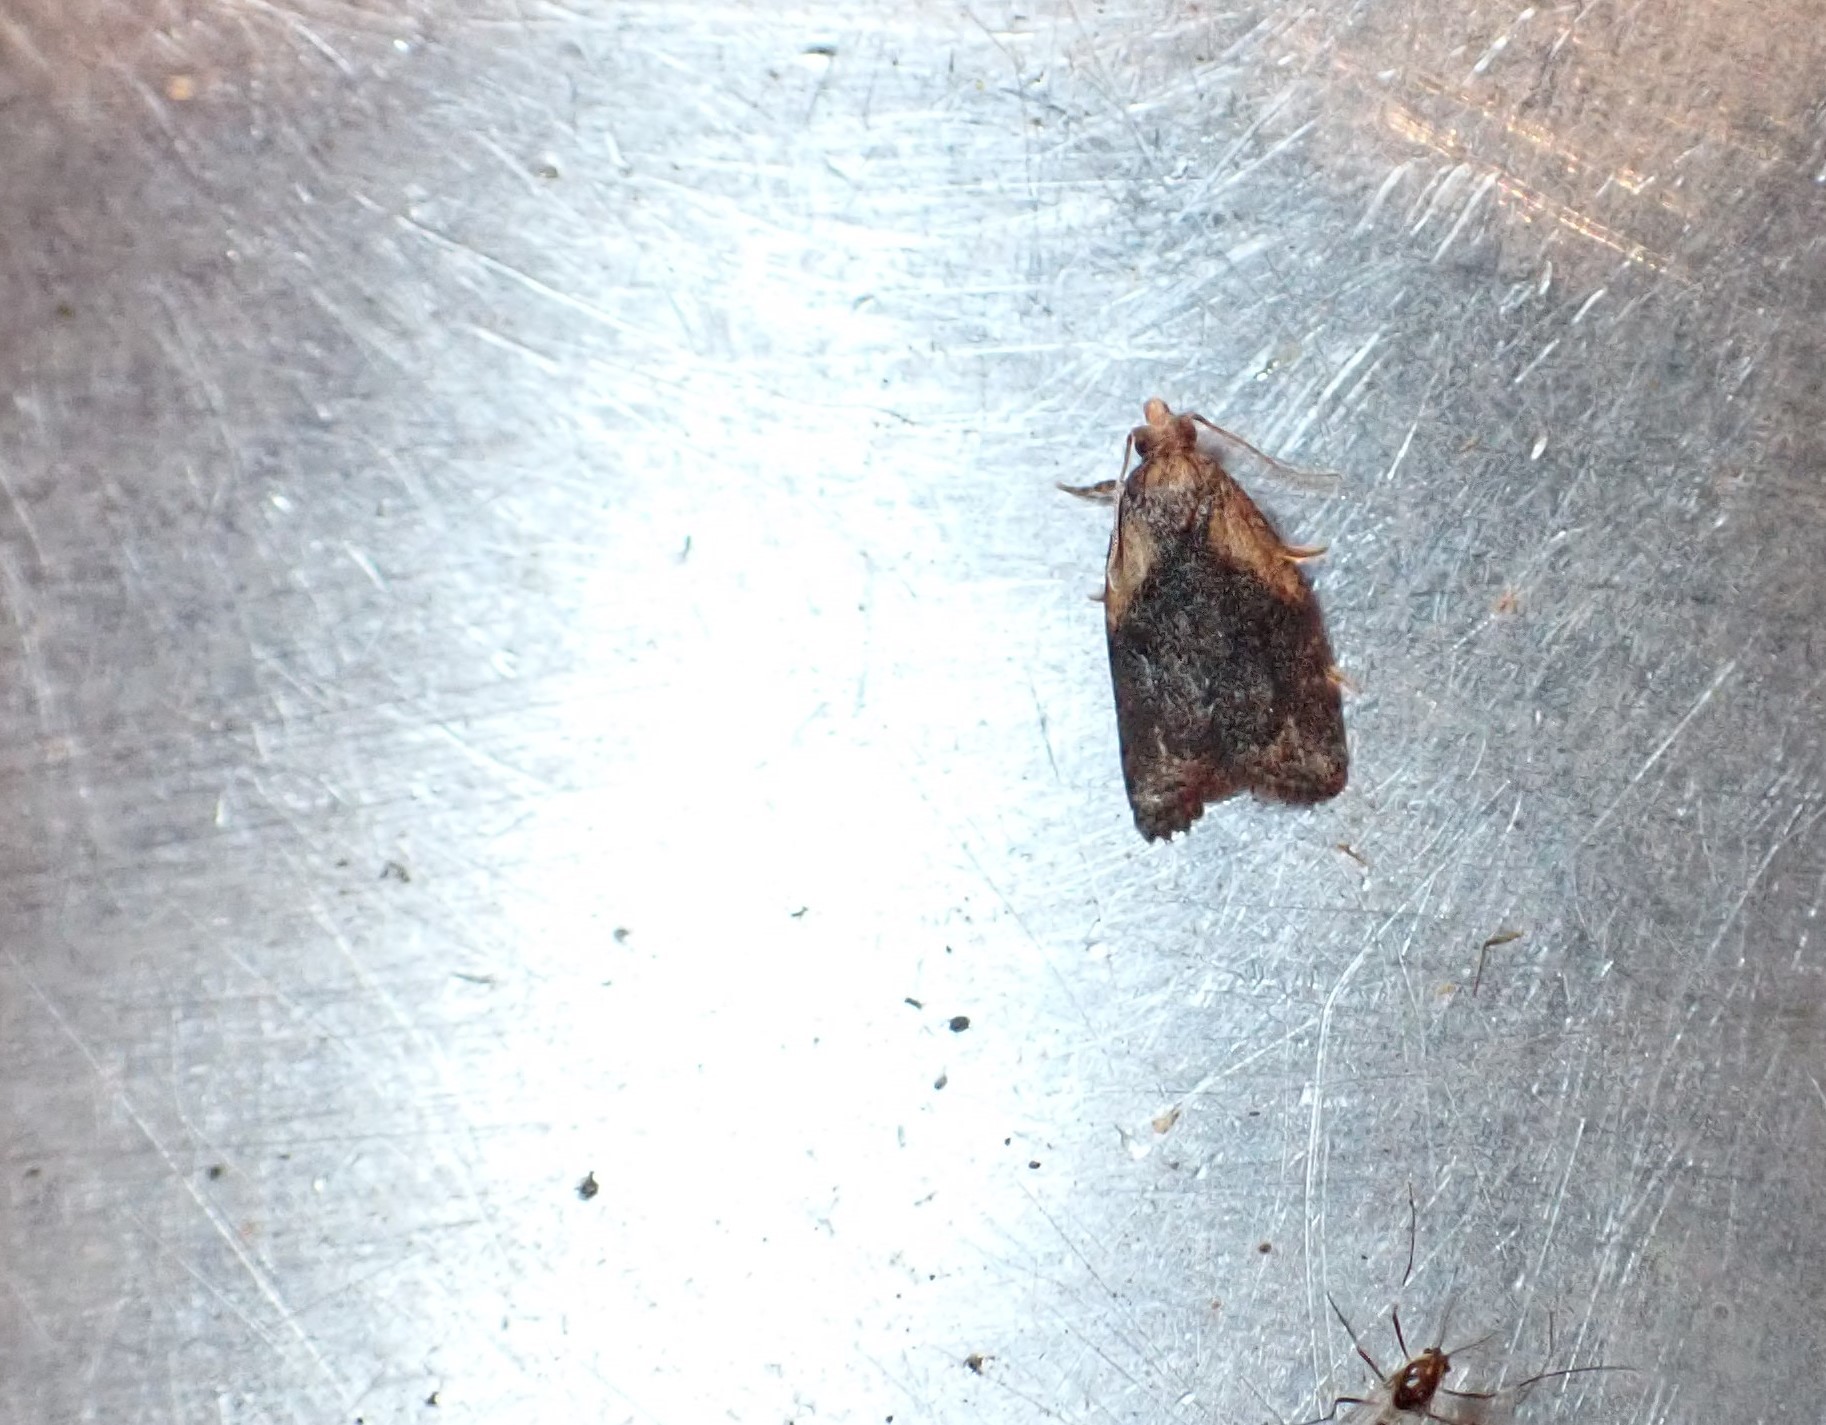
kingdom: Animalia
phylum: Arthropoda
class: Insecta
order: Lepidoptera
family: Tortricidae
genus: Capua
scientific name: Capua intractana
